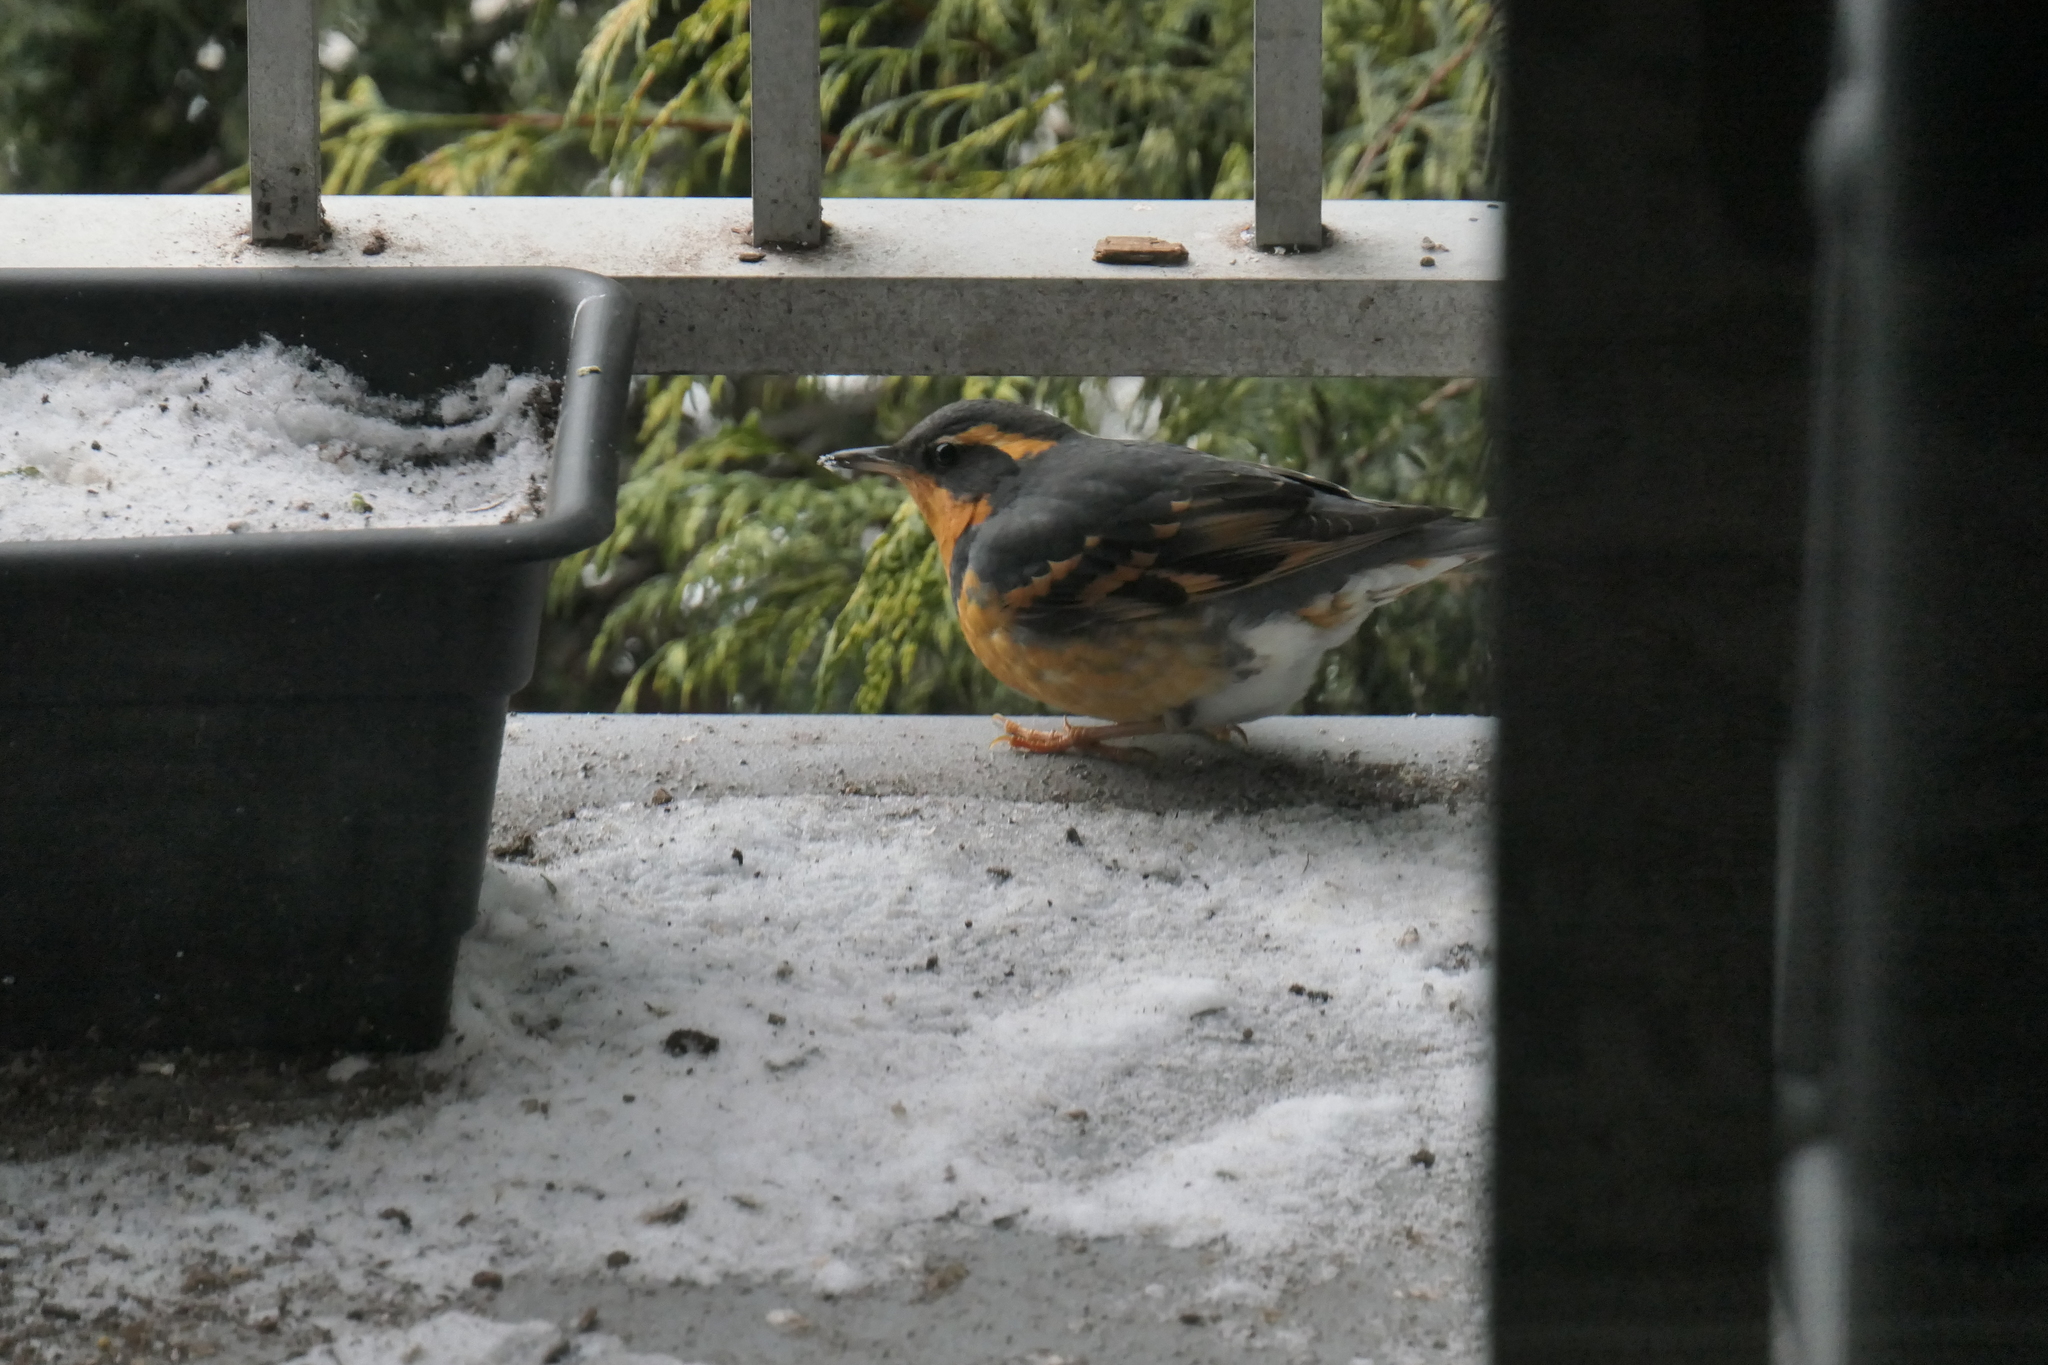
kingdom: Animalia
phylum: Chordata
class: Aves
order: Passeriformes
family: Turdidae
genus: Ixoreus
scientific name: Ixoreus naevius
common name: Varied thrush
